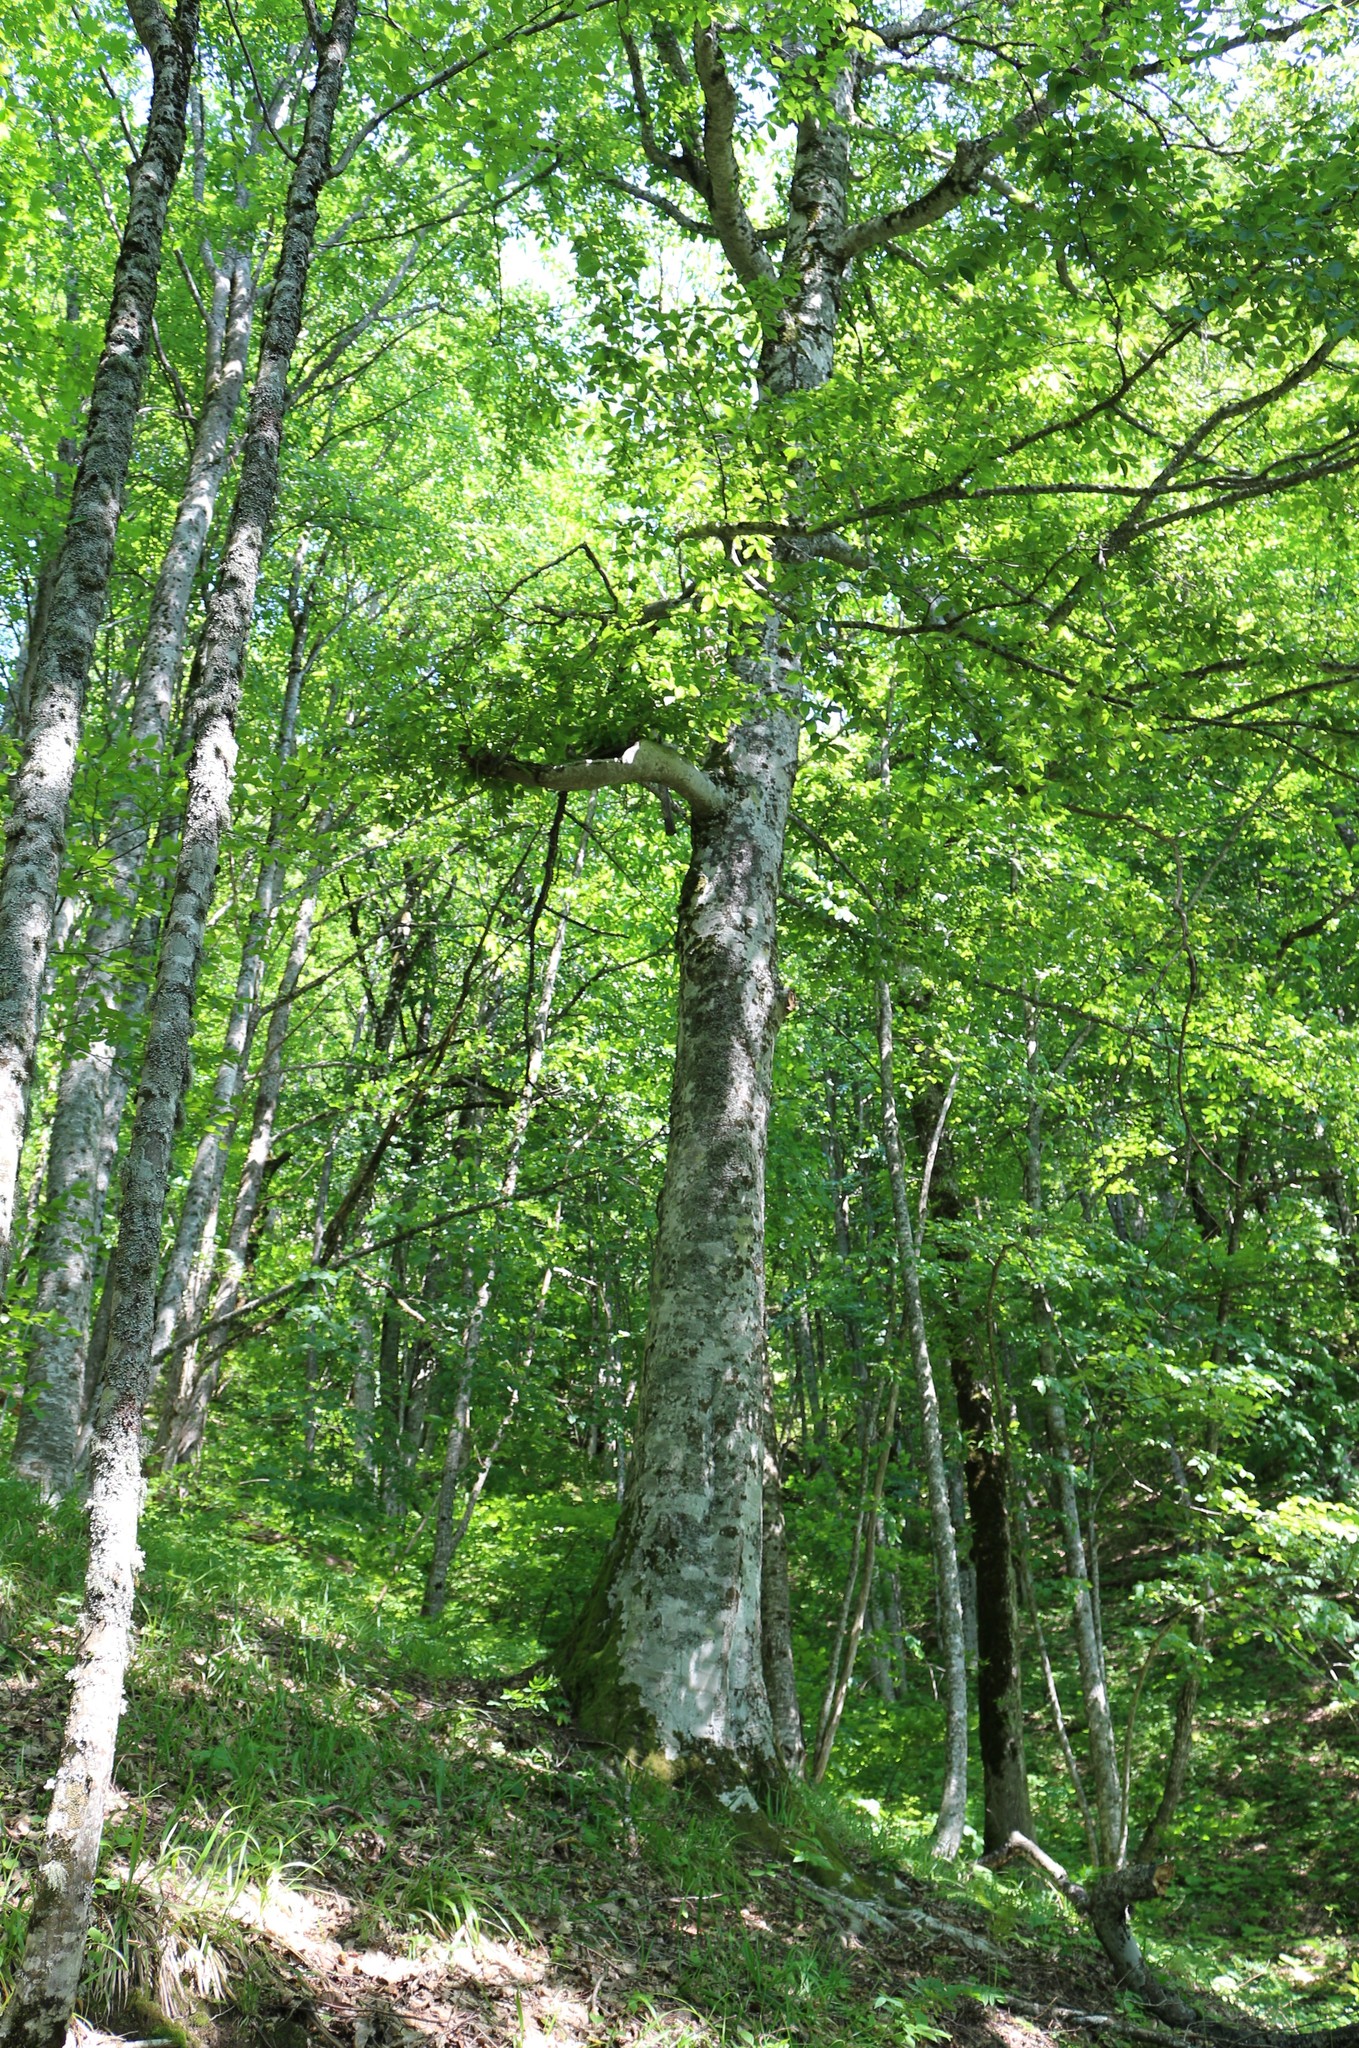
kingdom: Plantae
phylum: Tracheophyta
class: Magnoliopsida
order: Fagales
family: Fagaceae
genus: Fagus
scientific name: Fagus orientalis
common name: Oriental beech
